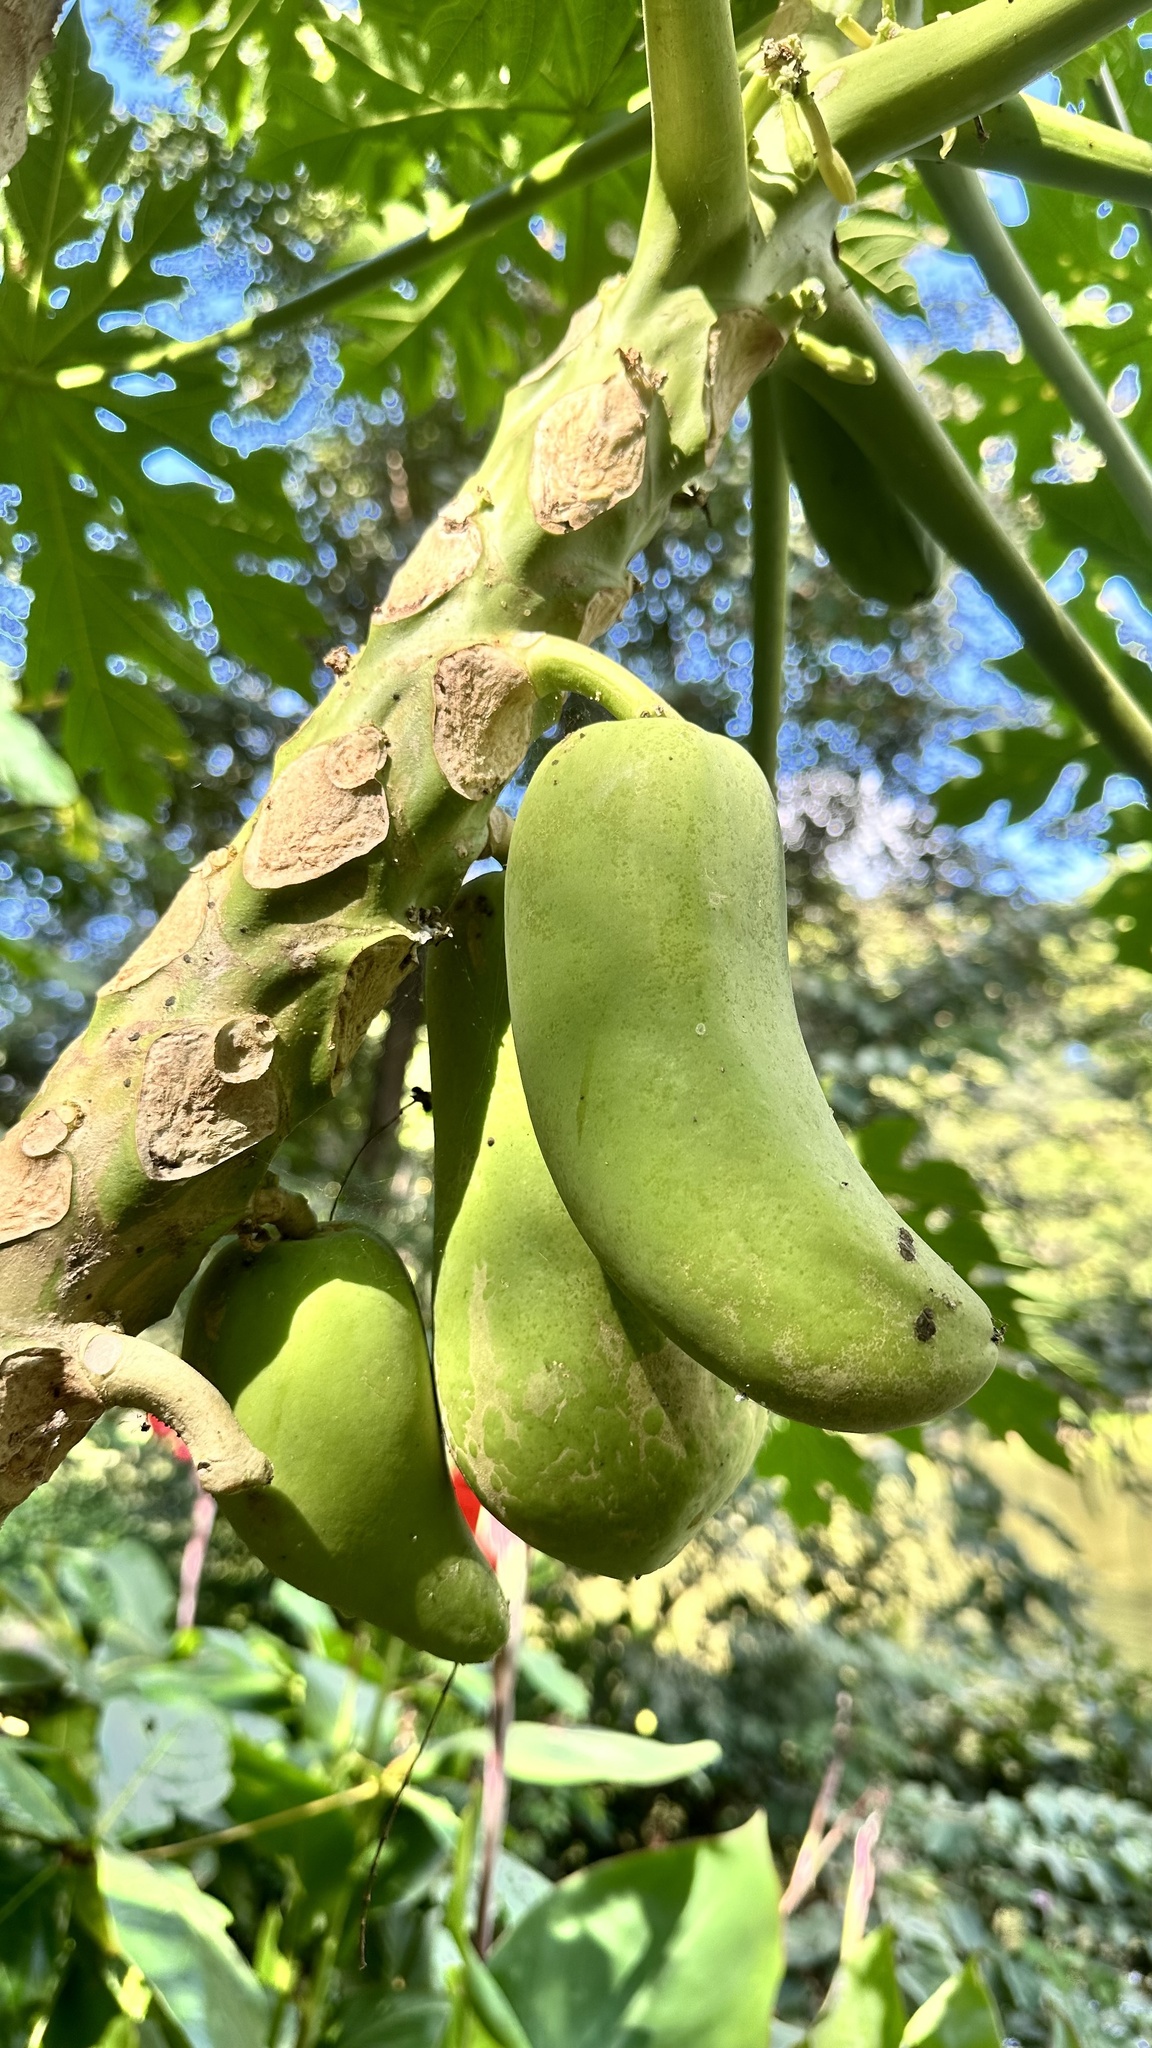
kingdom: Plantae
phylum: Tracheophyta
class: Magnoliopsida
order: Brassicales
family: Caricaceae
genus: Carica
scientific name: Carica papaya
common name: Papaya
